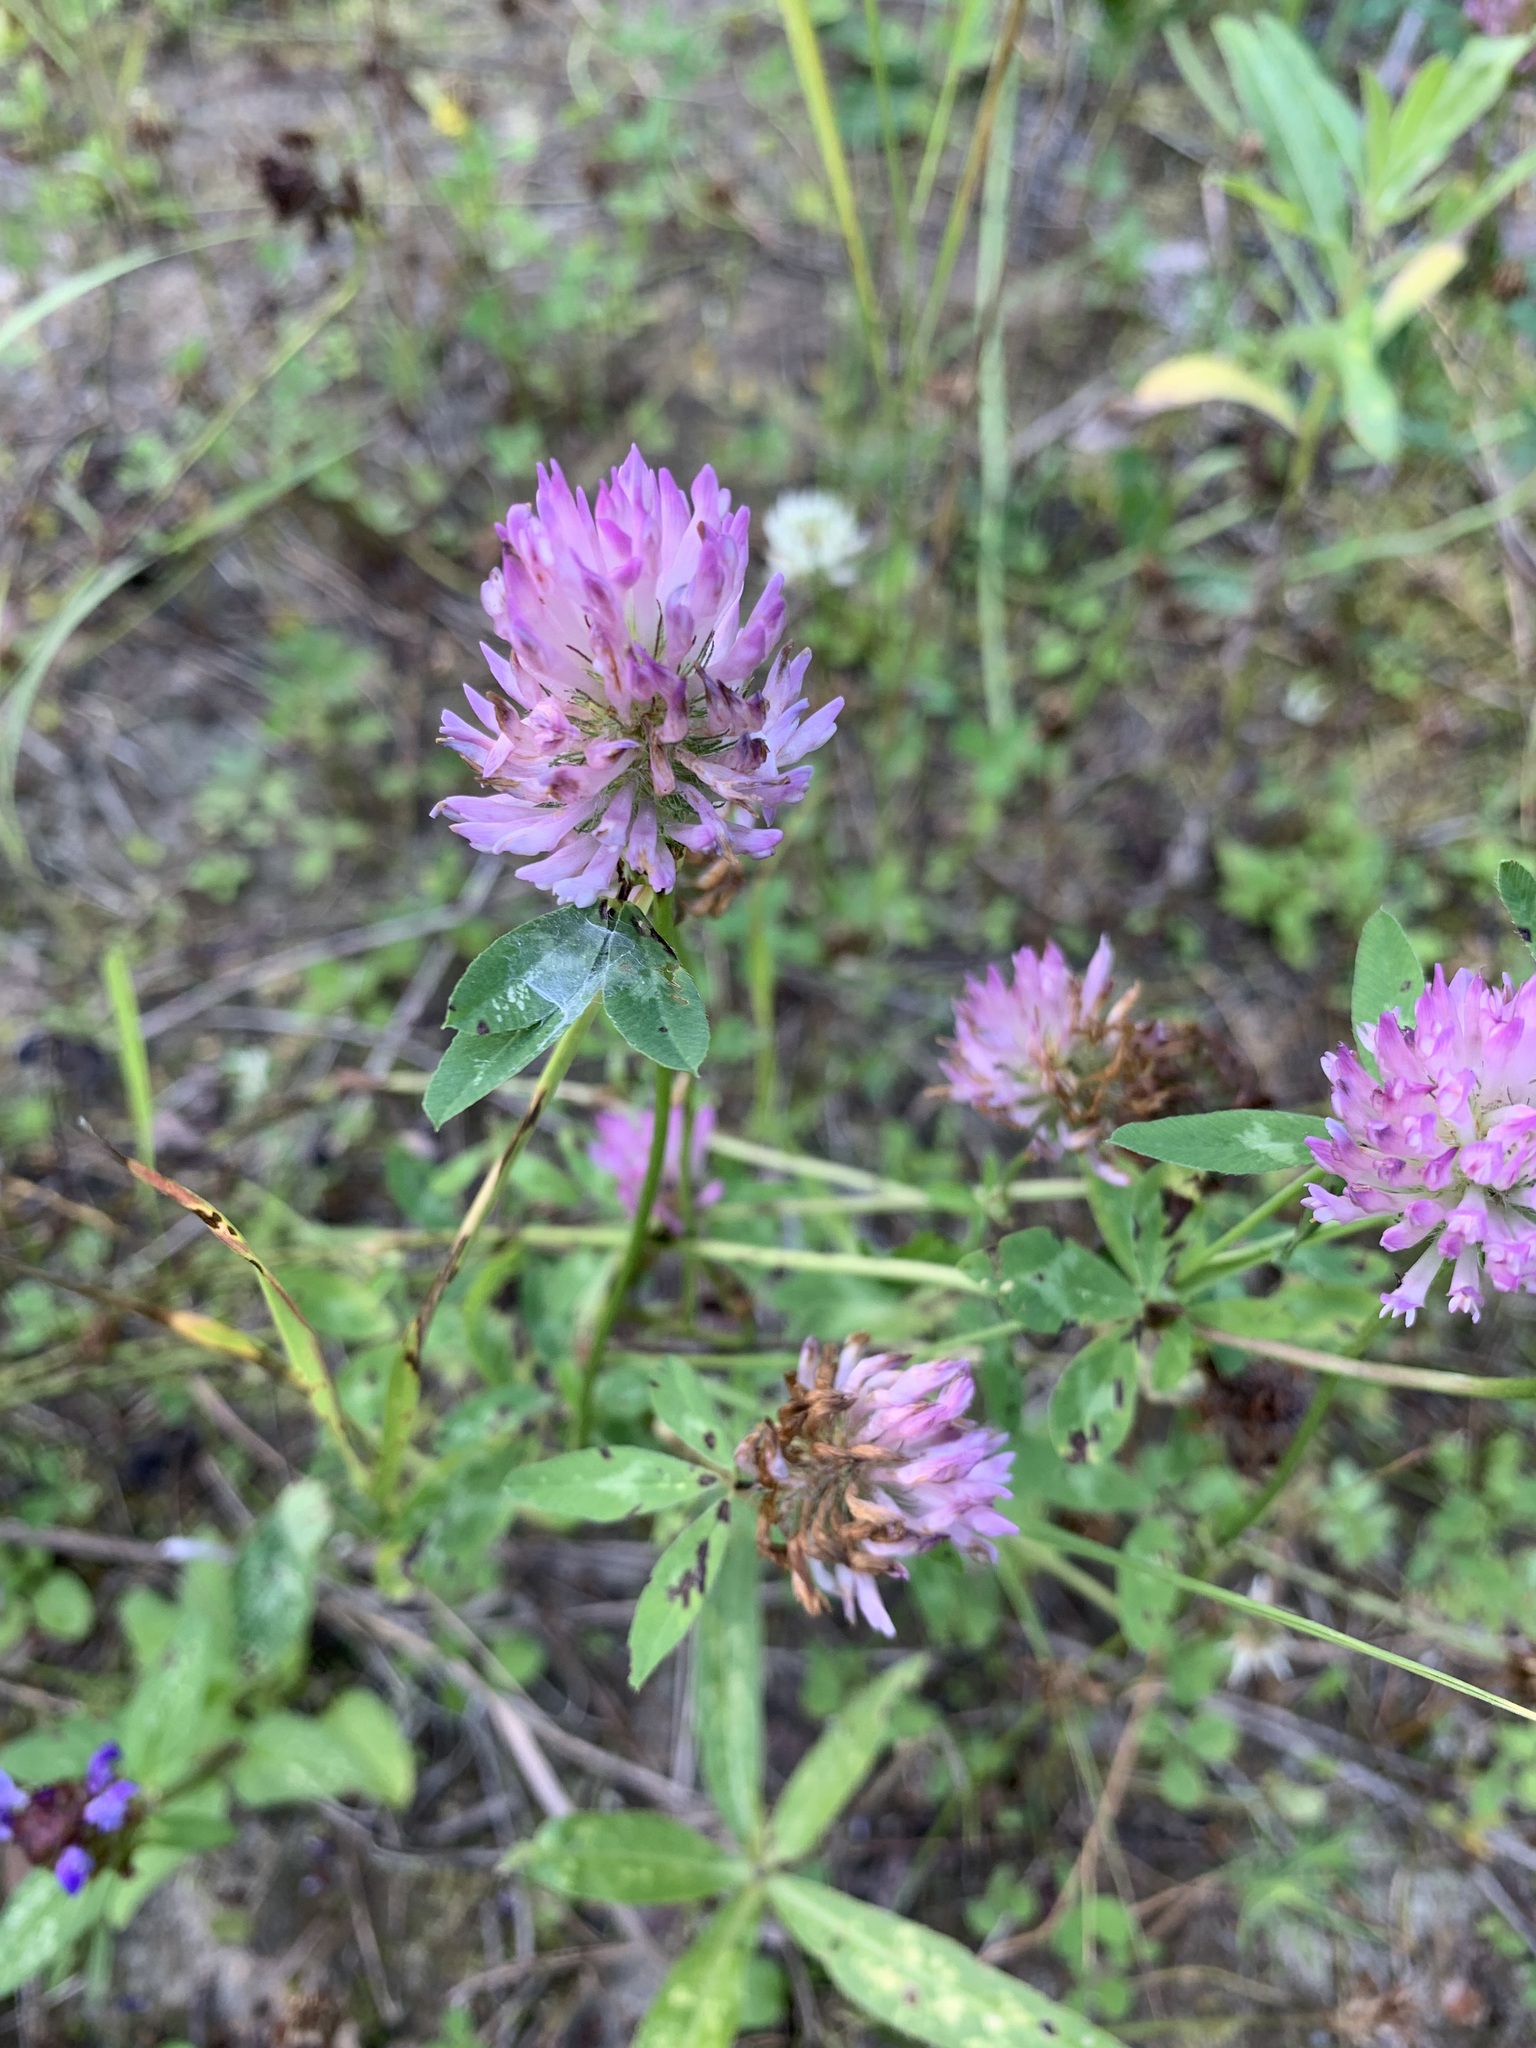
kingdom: Plantae
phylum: Tracheophyta
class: Magnoliopsida
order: Fabales
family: Fabaceae
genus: Trifolium
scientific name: Trifolium pratense
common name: Red clover
